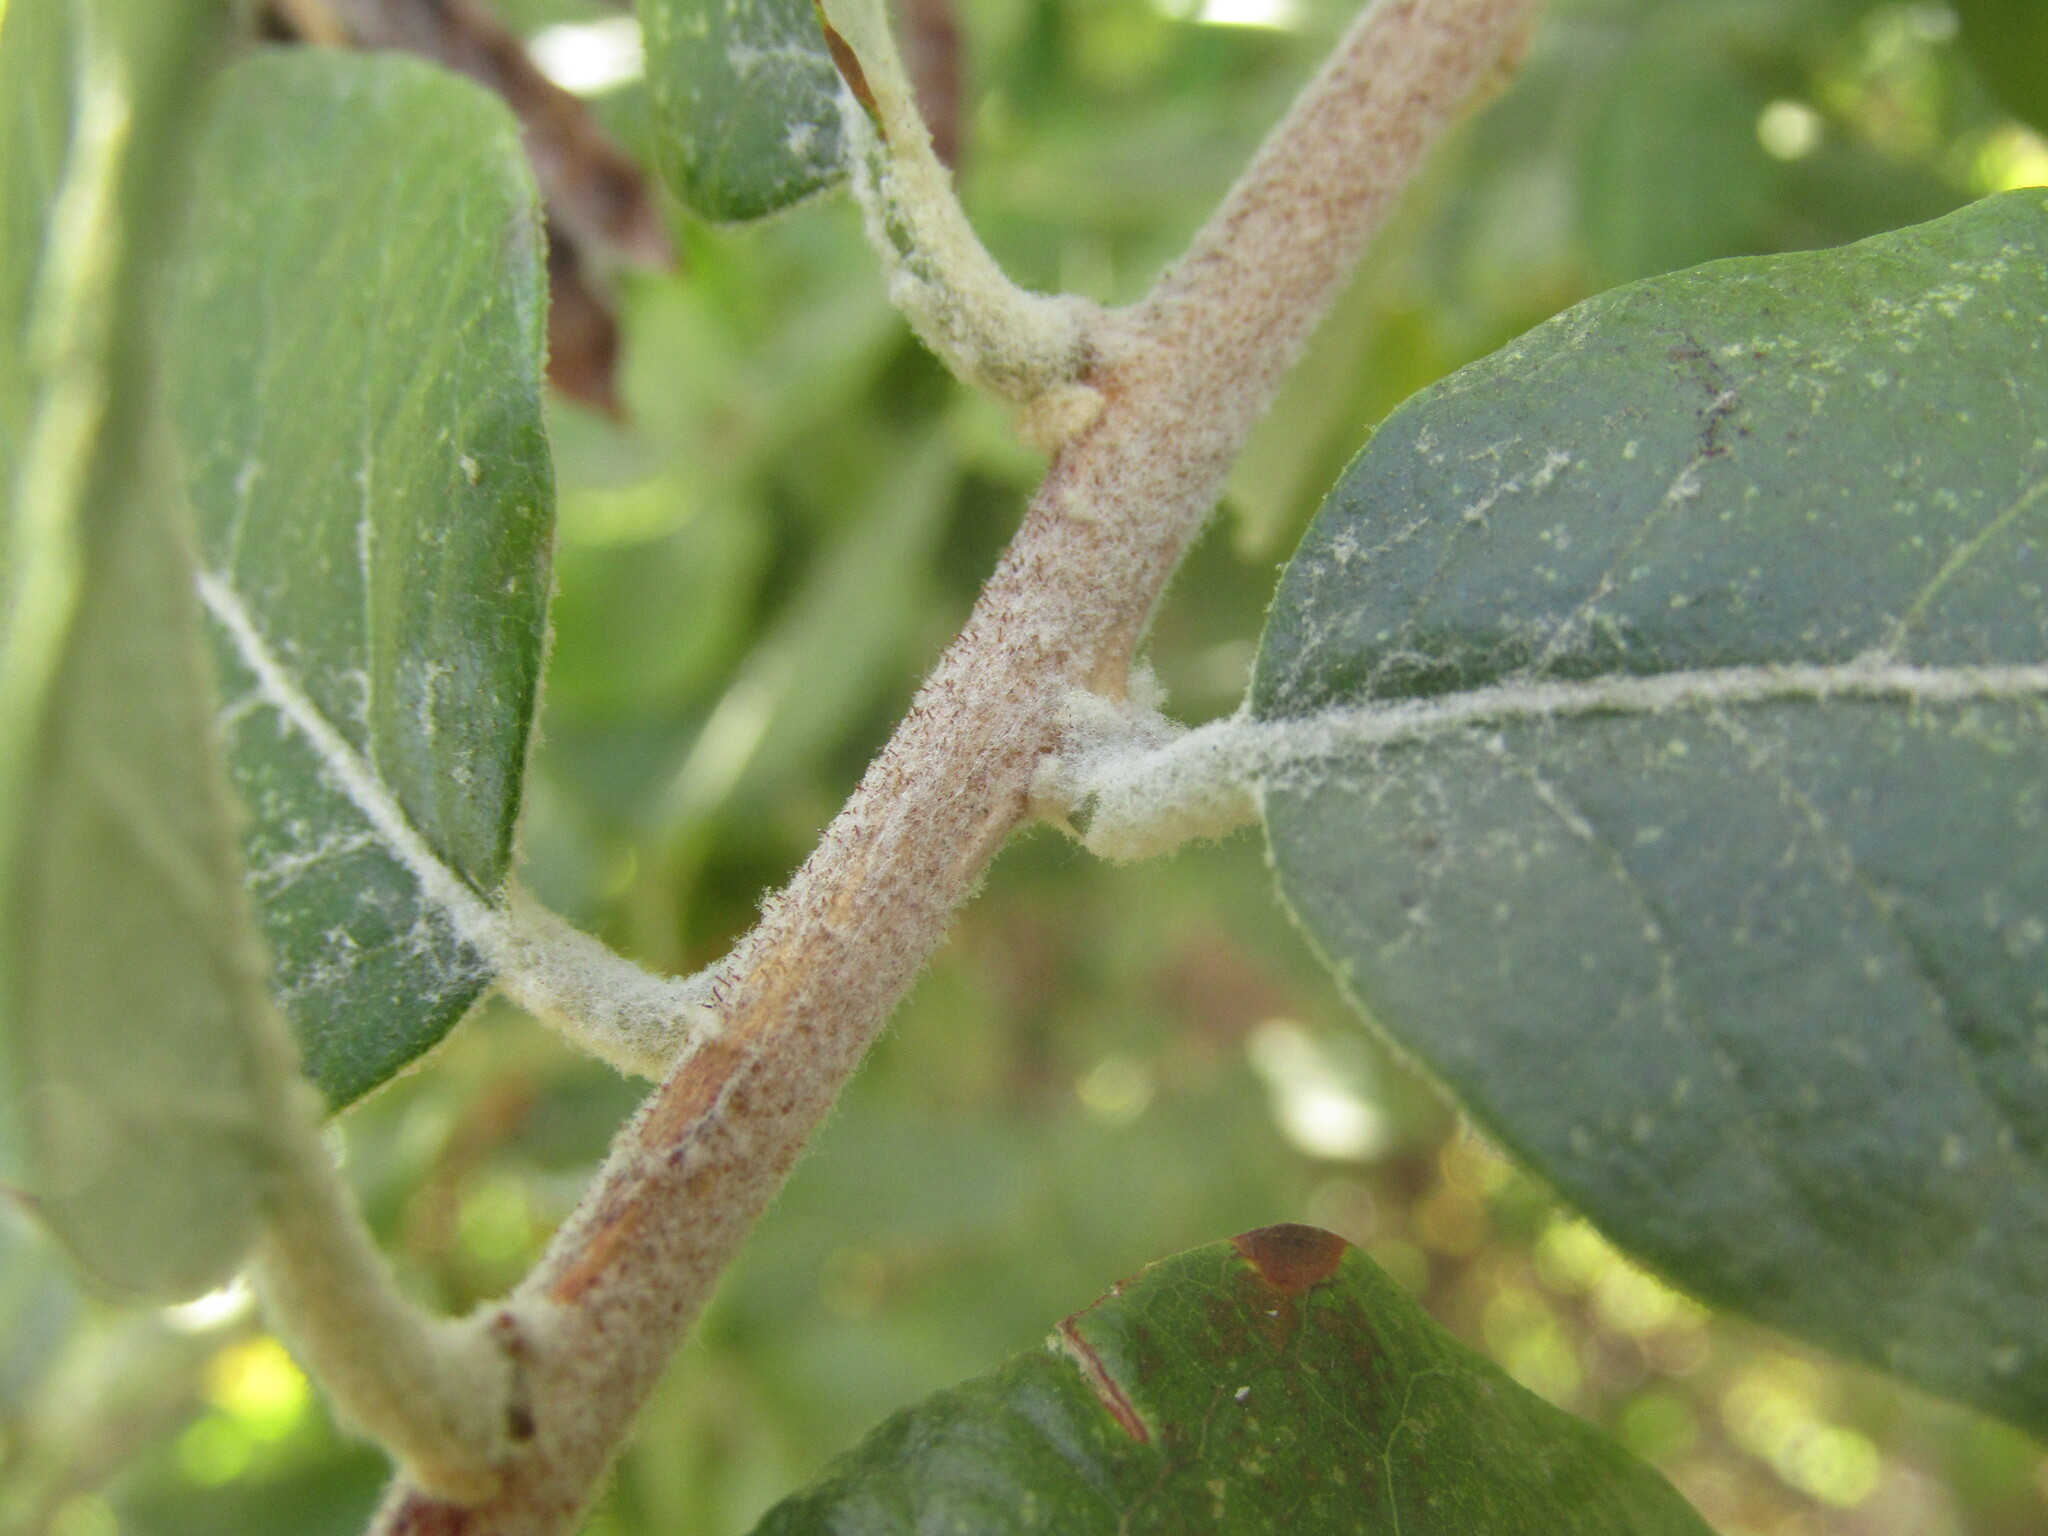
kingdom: Plantae
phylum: Tracheophyta
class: Magnoliopsida
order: Asterales
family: Asteraceae
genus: Proustia
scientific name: Proustia pyrifolia
